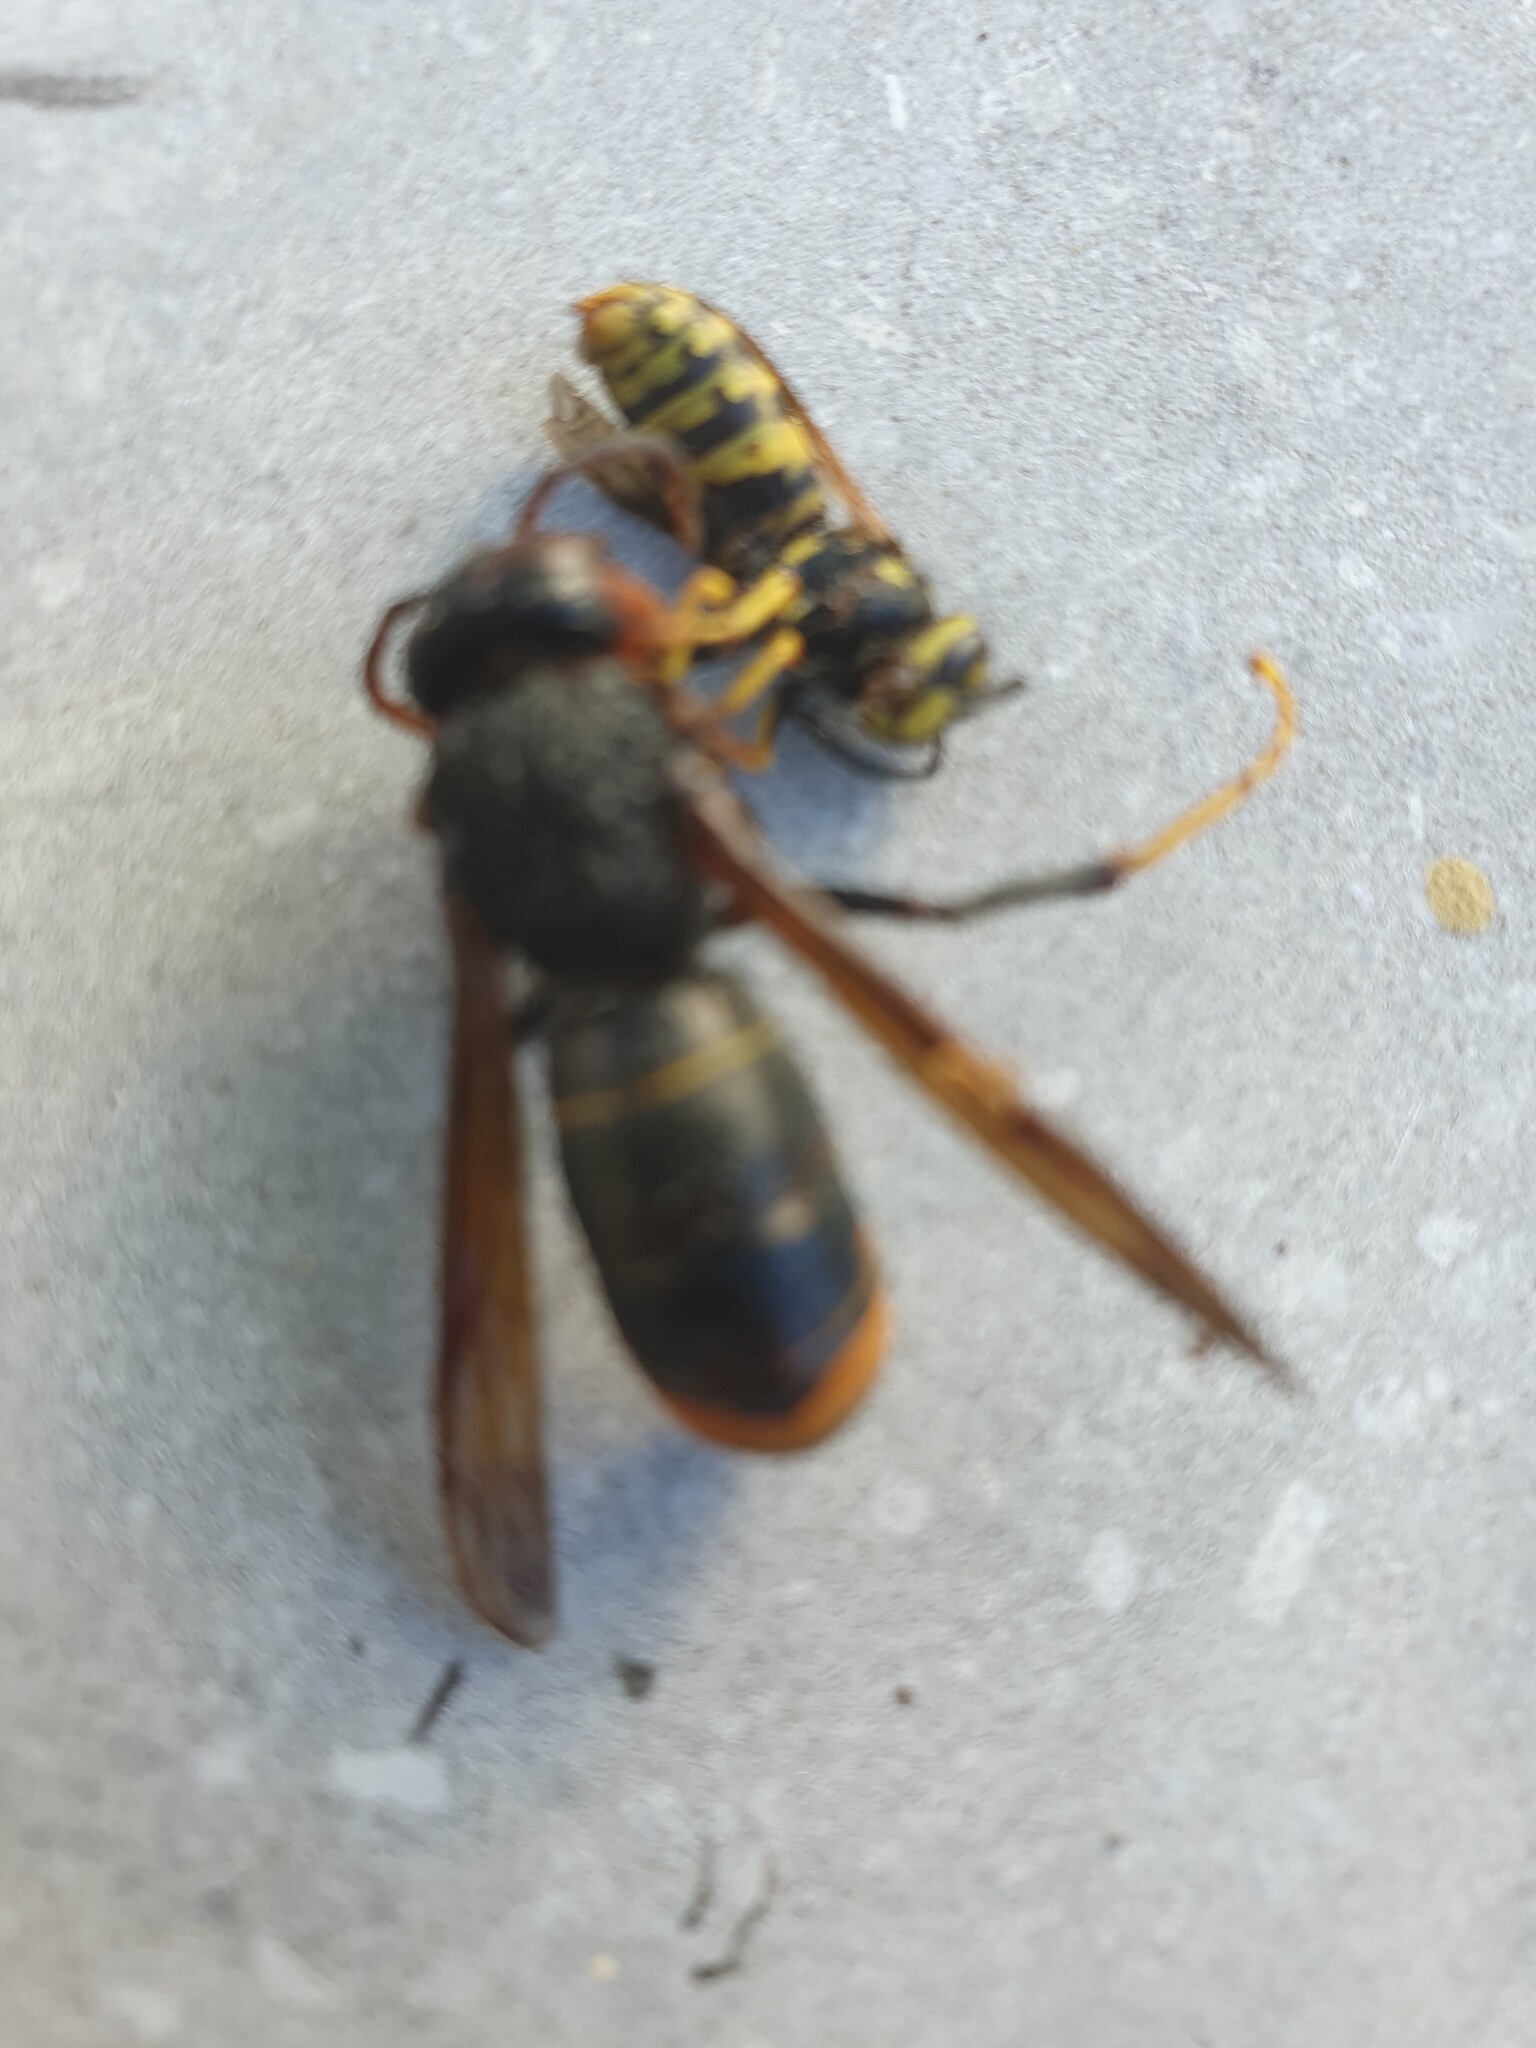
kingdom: Animalia
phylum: Arthropoda
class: Insecta
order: Hymenoptera
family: Vespidae
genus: Vespa
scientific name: Vespa velutina
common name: Asian hornet
